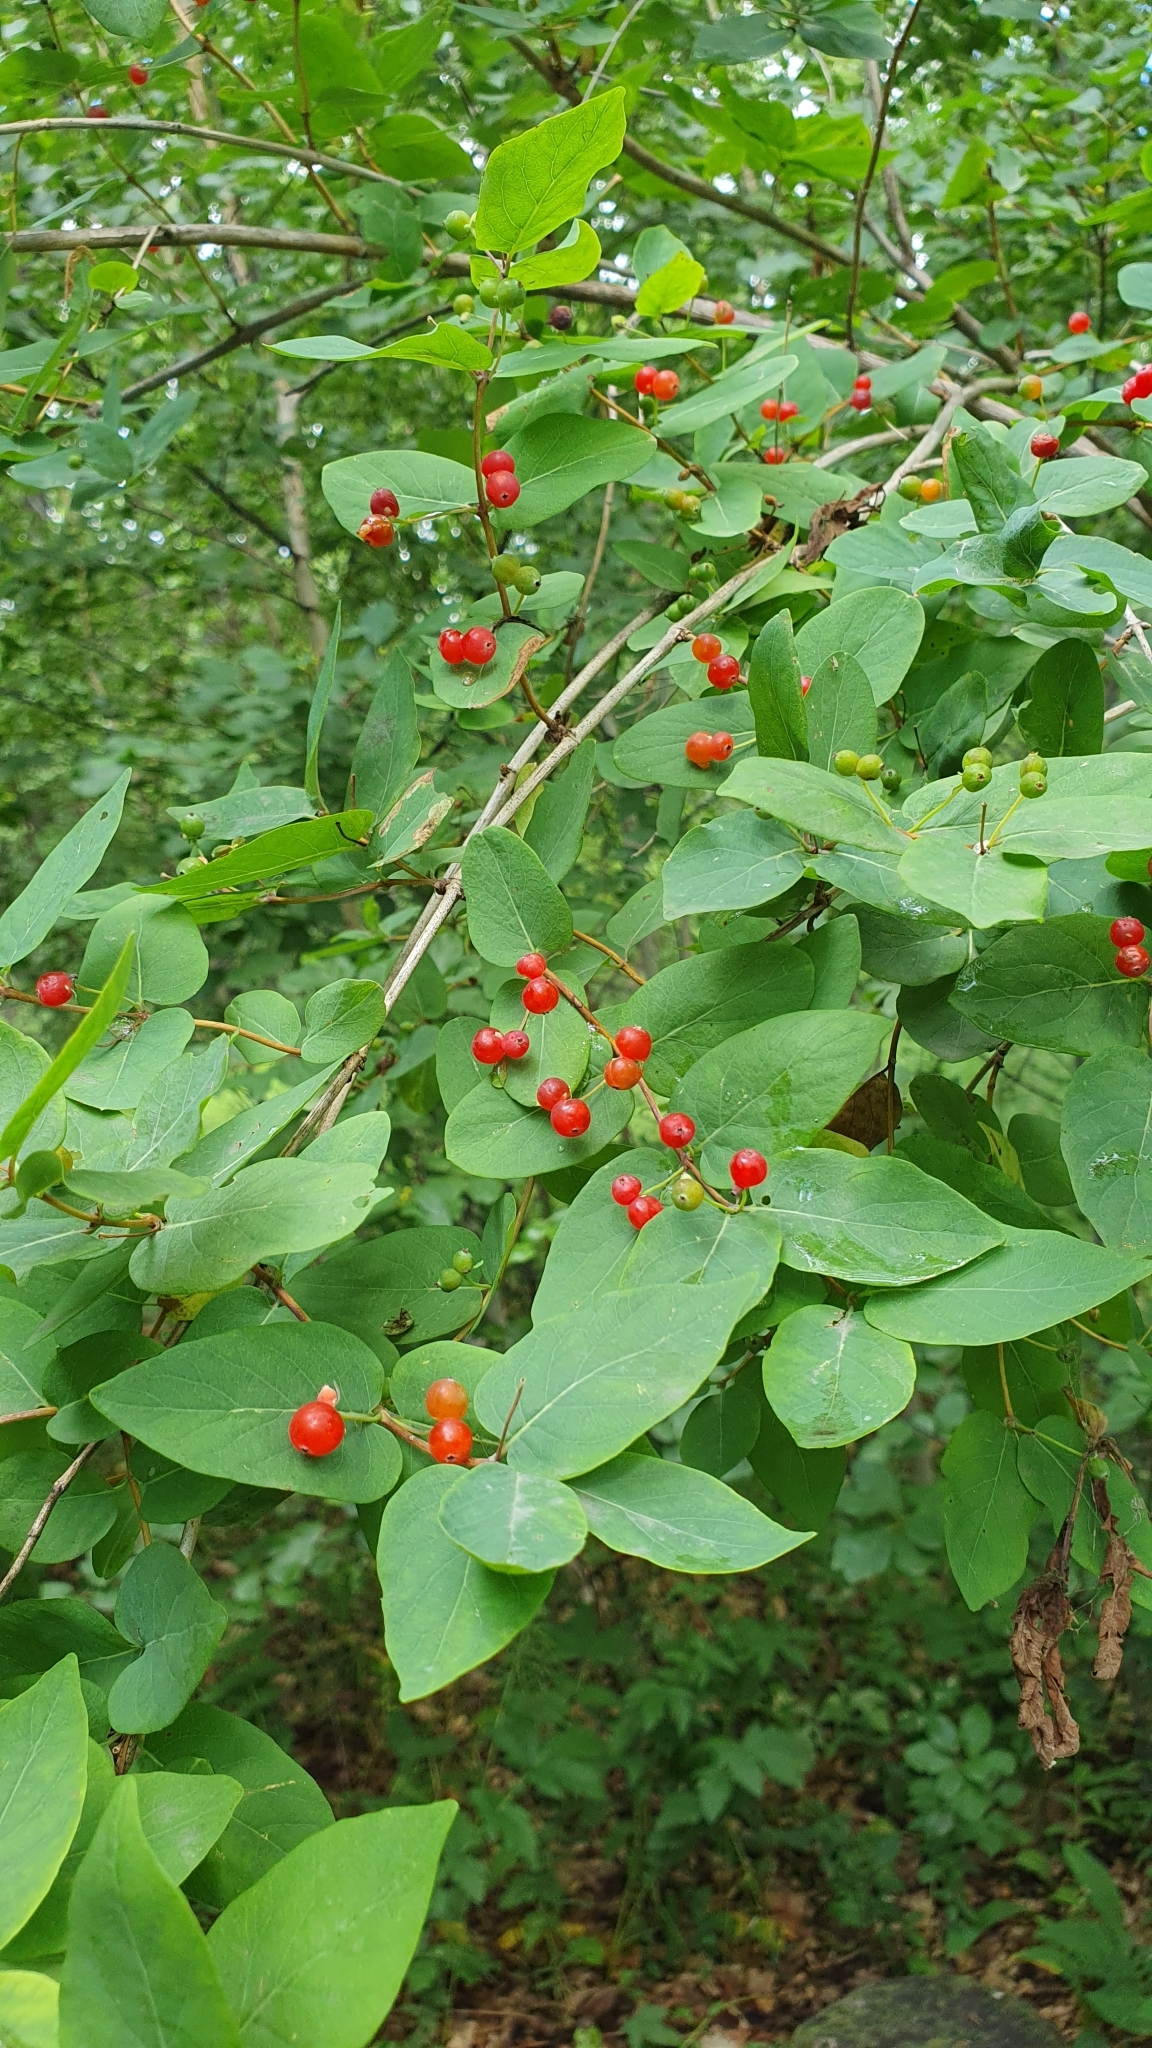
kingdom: Plantae
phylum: Tracheophyta
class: Magnoliopsida
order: Dipsacales
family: Caprifoliaceae
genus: Lonicera
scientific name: Lonicera tatarica
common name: Tatarian honeysuckle
